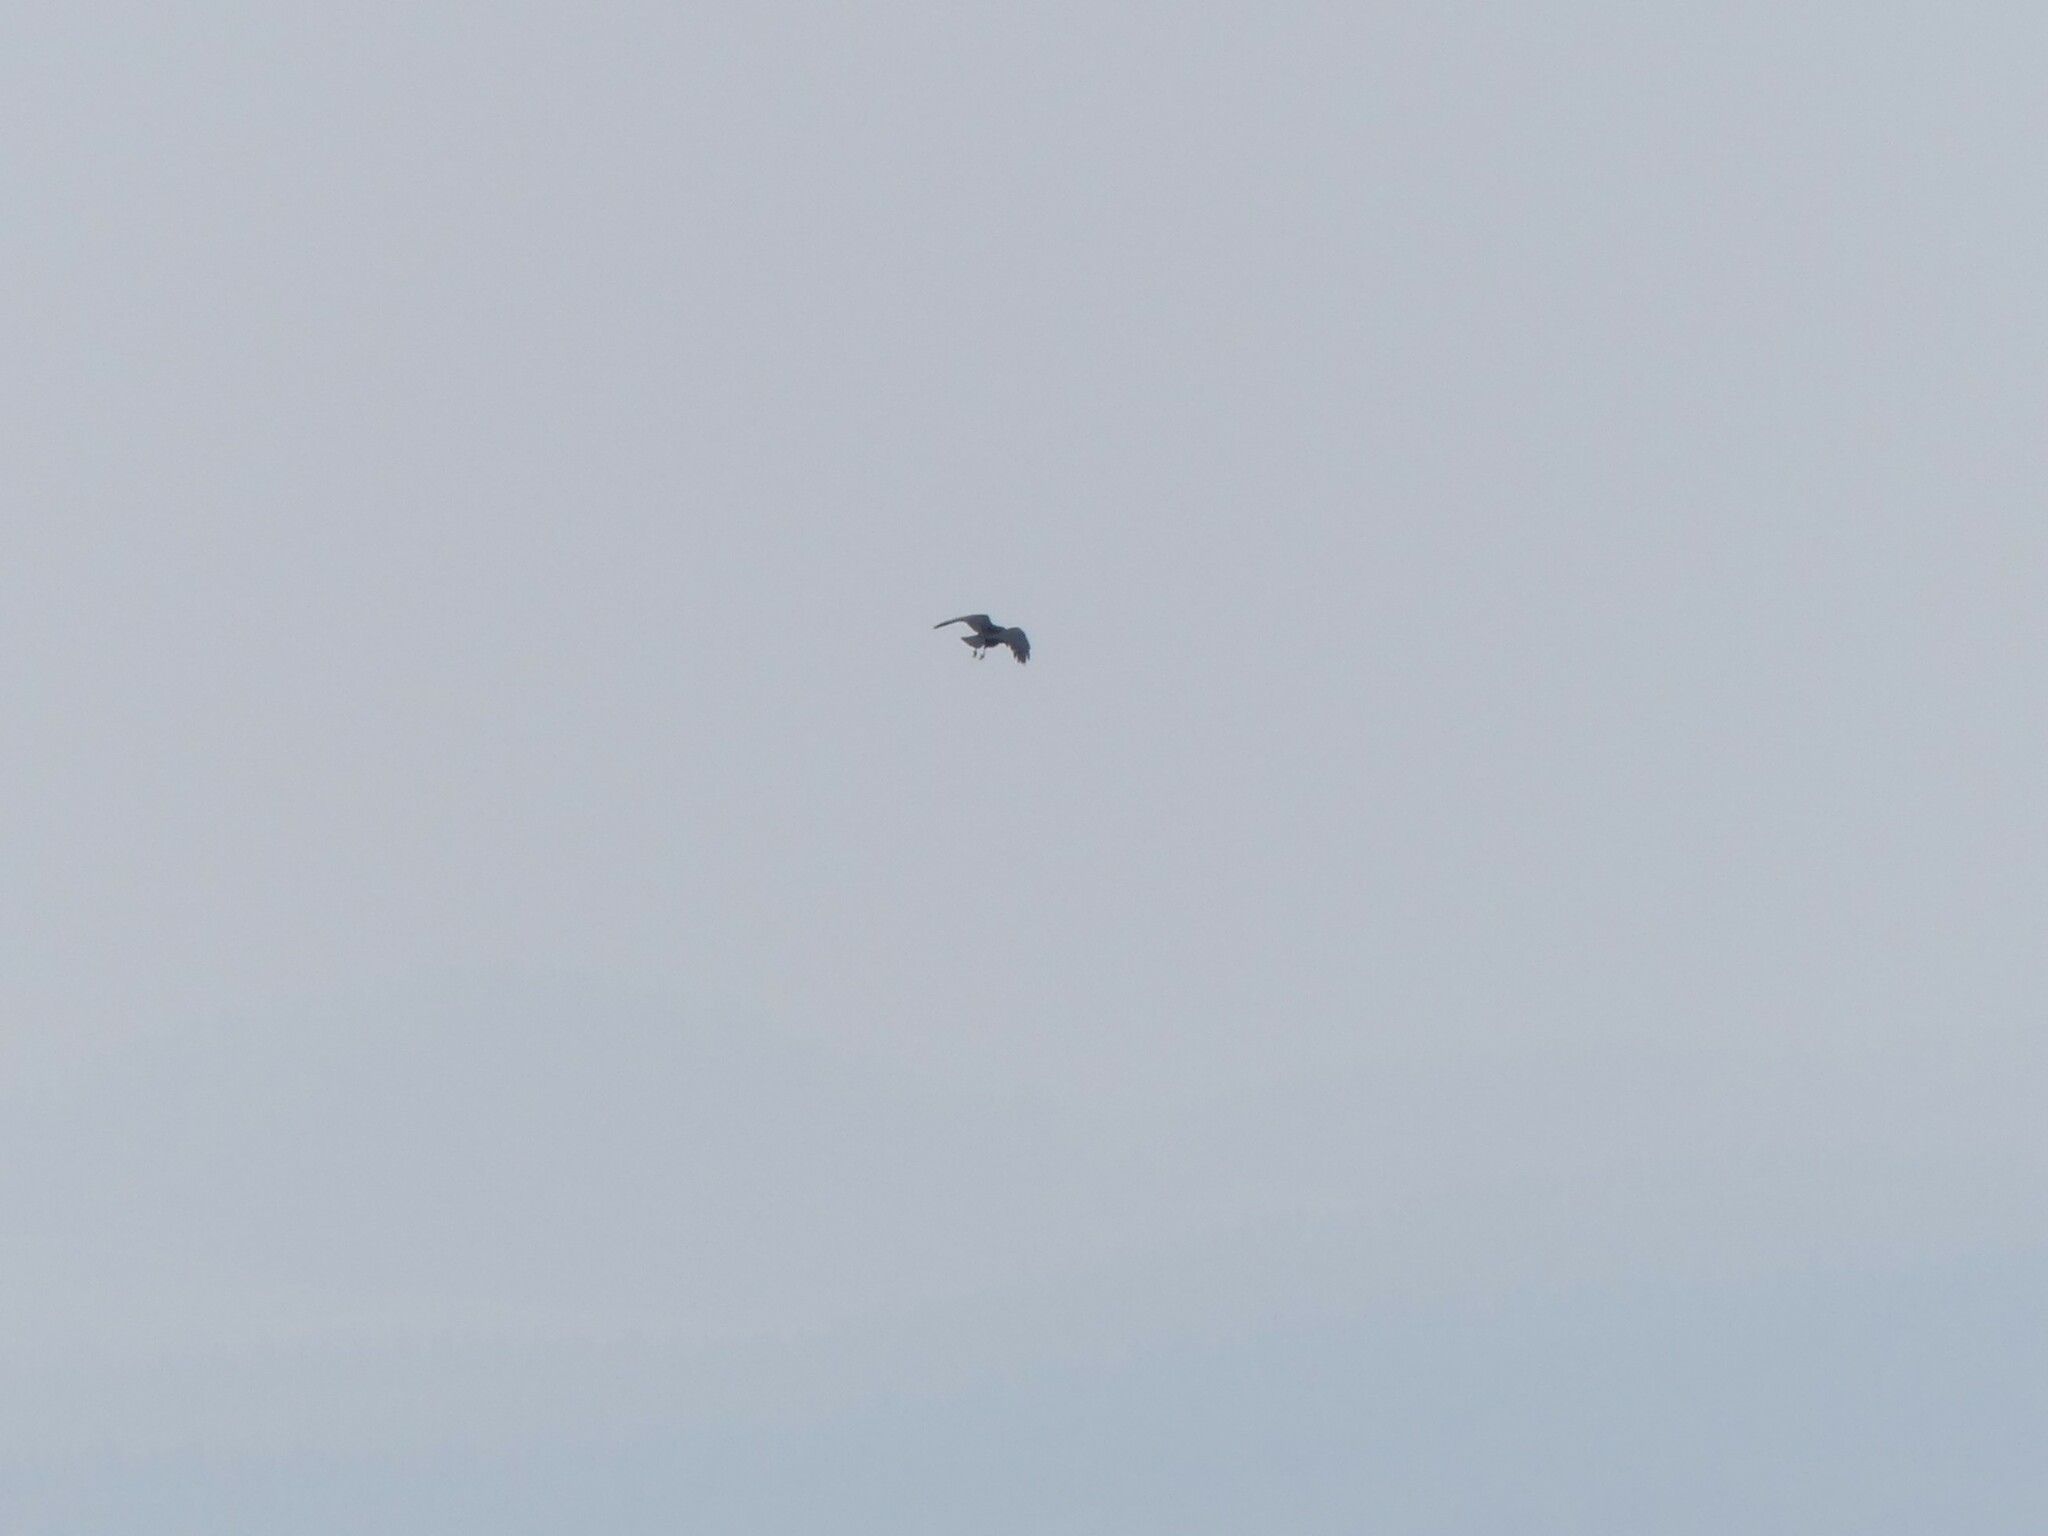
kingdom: Animalia
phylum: Chordata
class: Aves
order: Passeriformes
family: Corvidae
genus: Corvus
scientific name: Corvus corax
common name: Common raven
